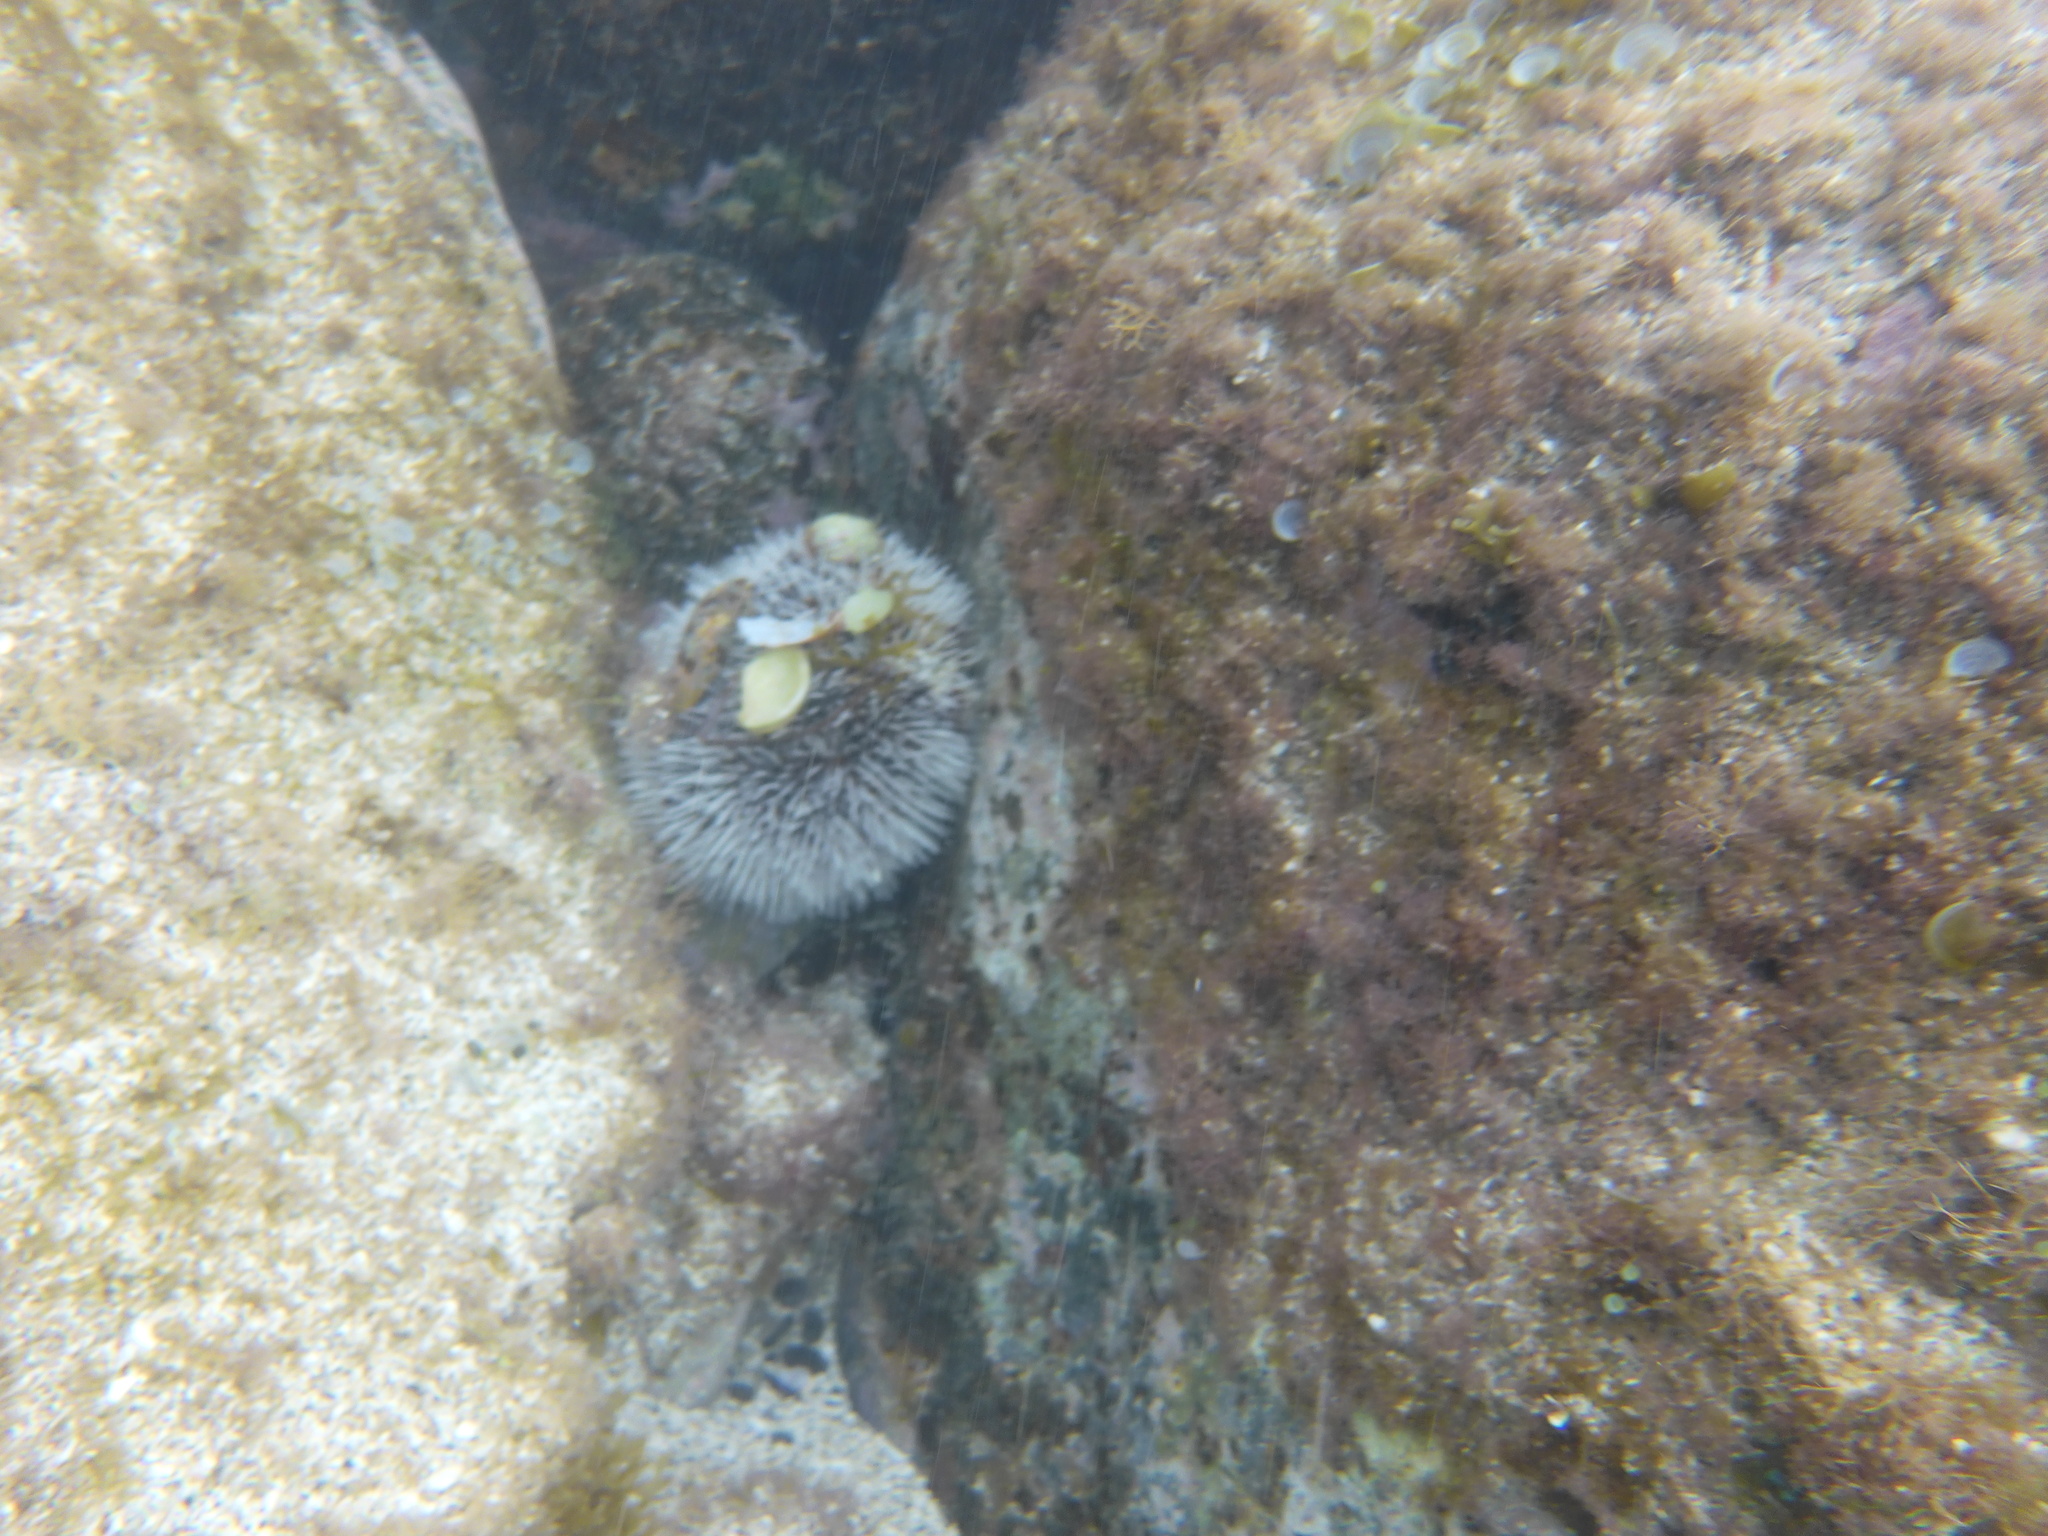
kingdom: Animalia
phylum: Echinodermata
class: Echinoidea
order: Camarodonta
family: Toxopneustidae
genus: Tripneustes
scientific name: Tripneustes ventricosus
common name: West indian sea egg
